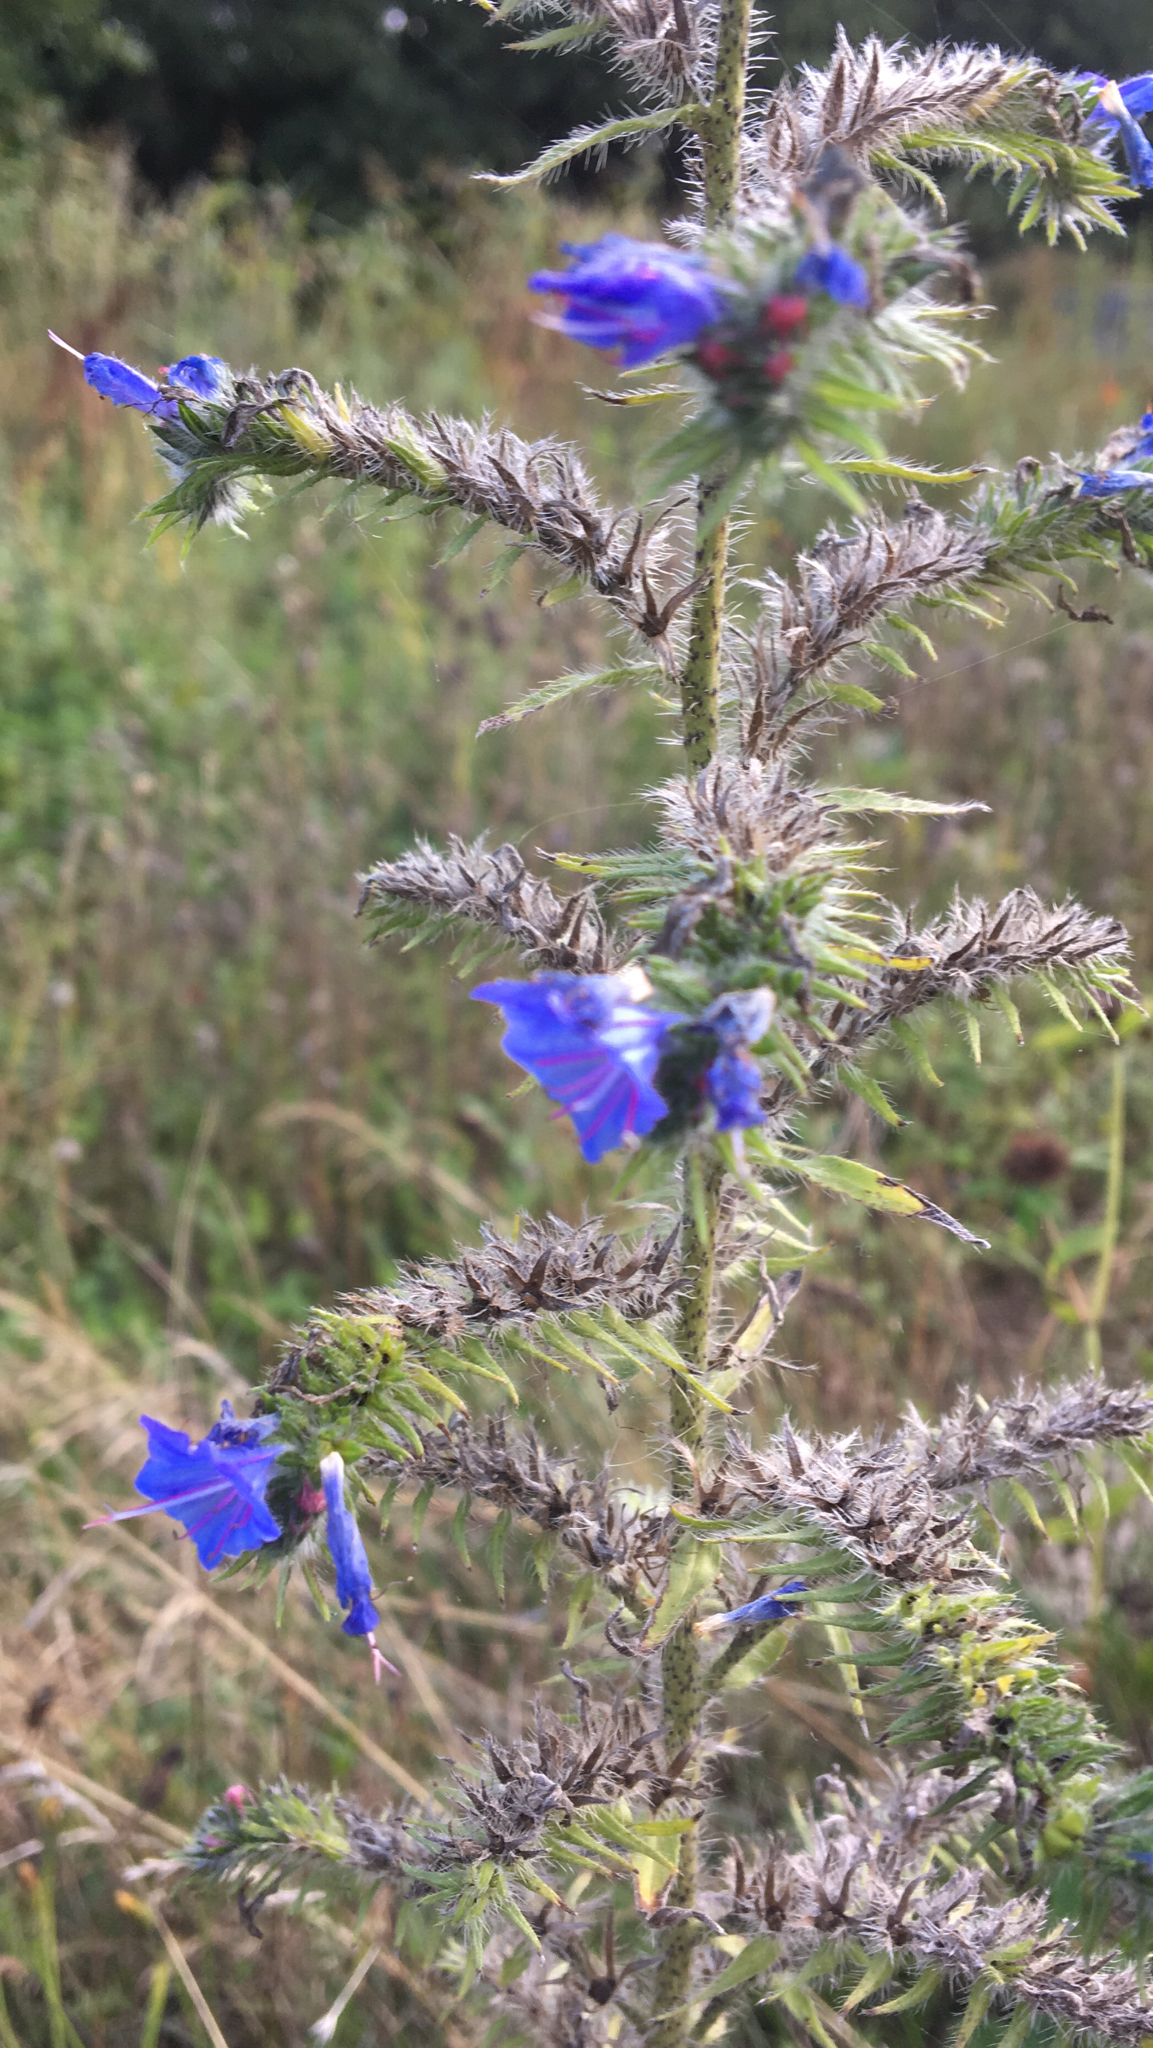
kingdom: Plantae
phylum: Tracheophyta
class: Magnoliopsida
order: Boraginales
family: Boraginaceae
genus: Echium
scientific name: Echium vulgare
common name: Common viper's bugloss
